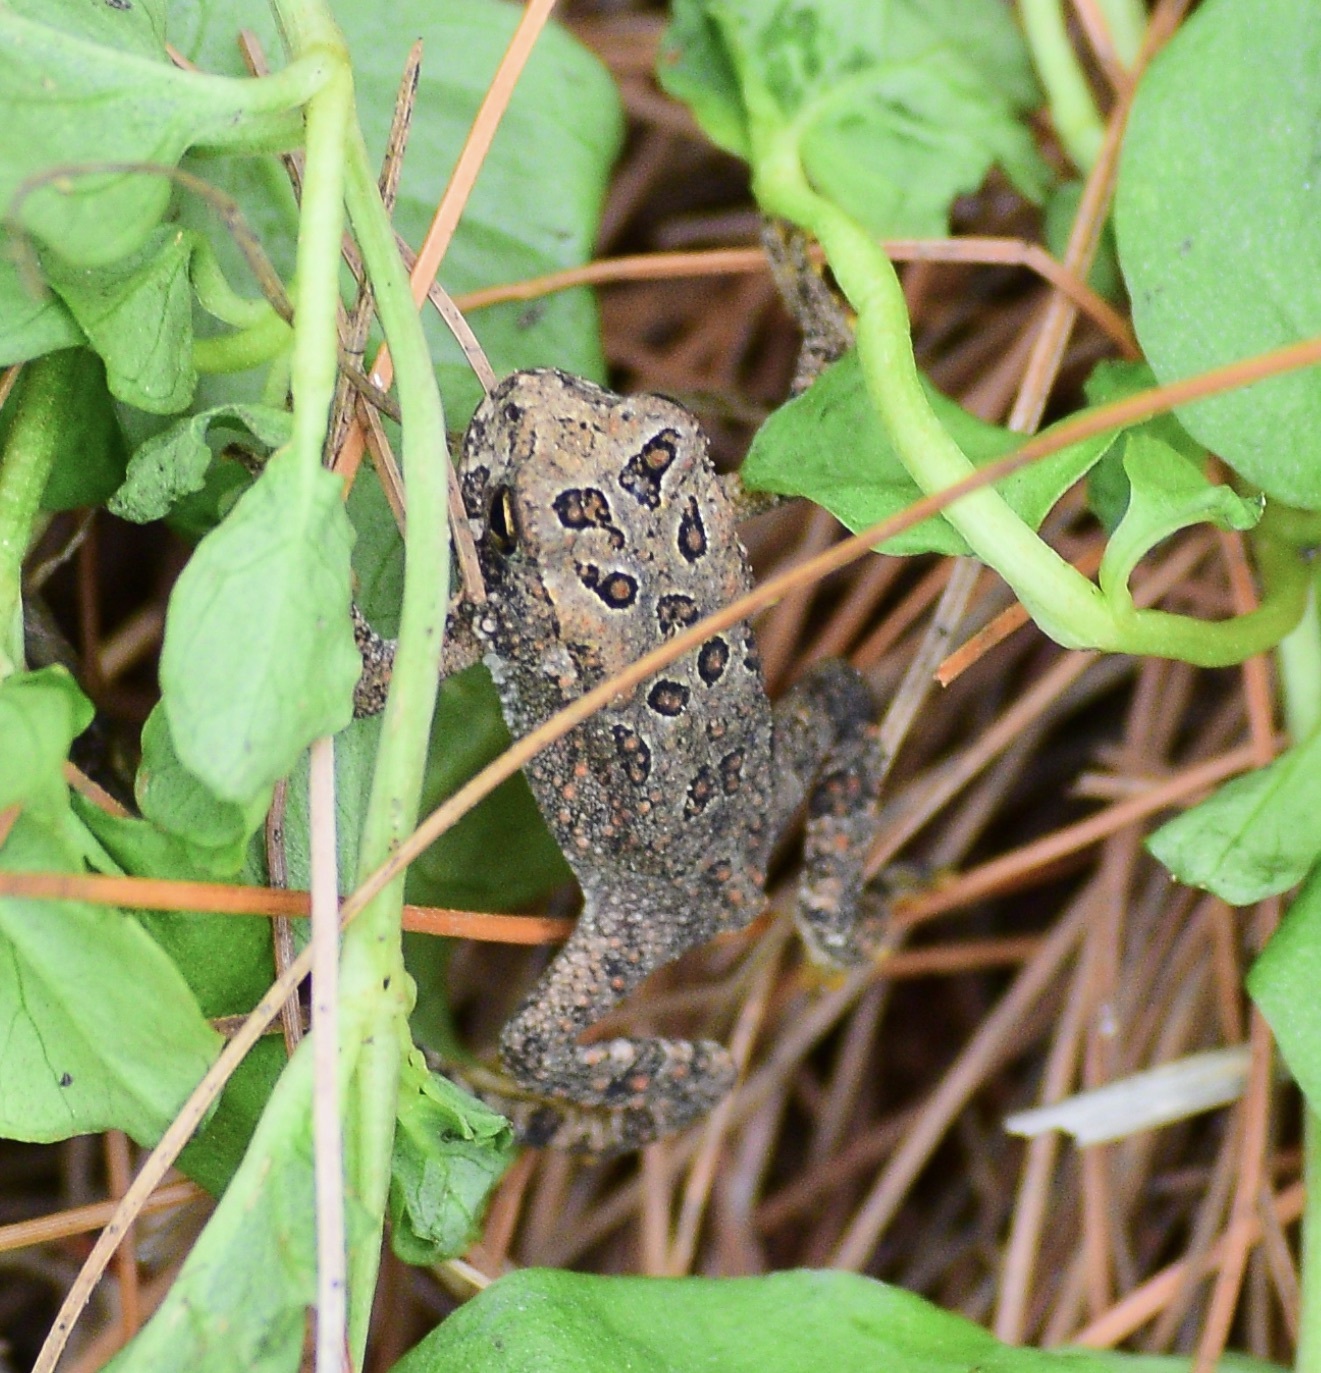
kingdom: Animalia
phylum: Chordata
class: Amphibia
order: Anura
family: Bufonidae
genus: Anaxyrus
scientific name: Anaxyrus americanus
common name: American toad
